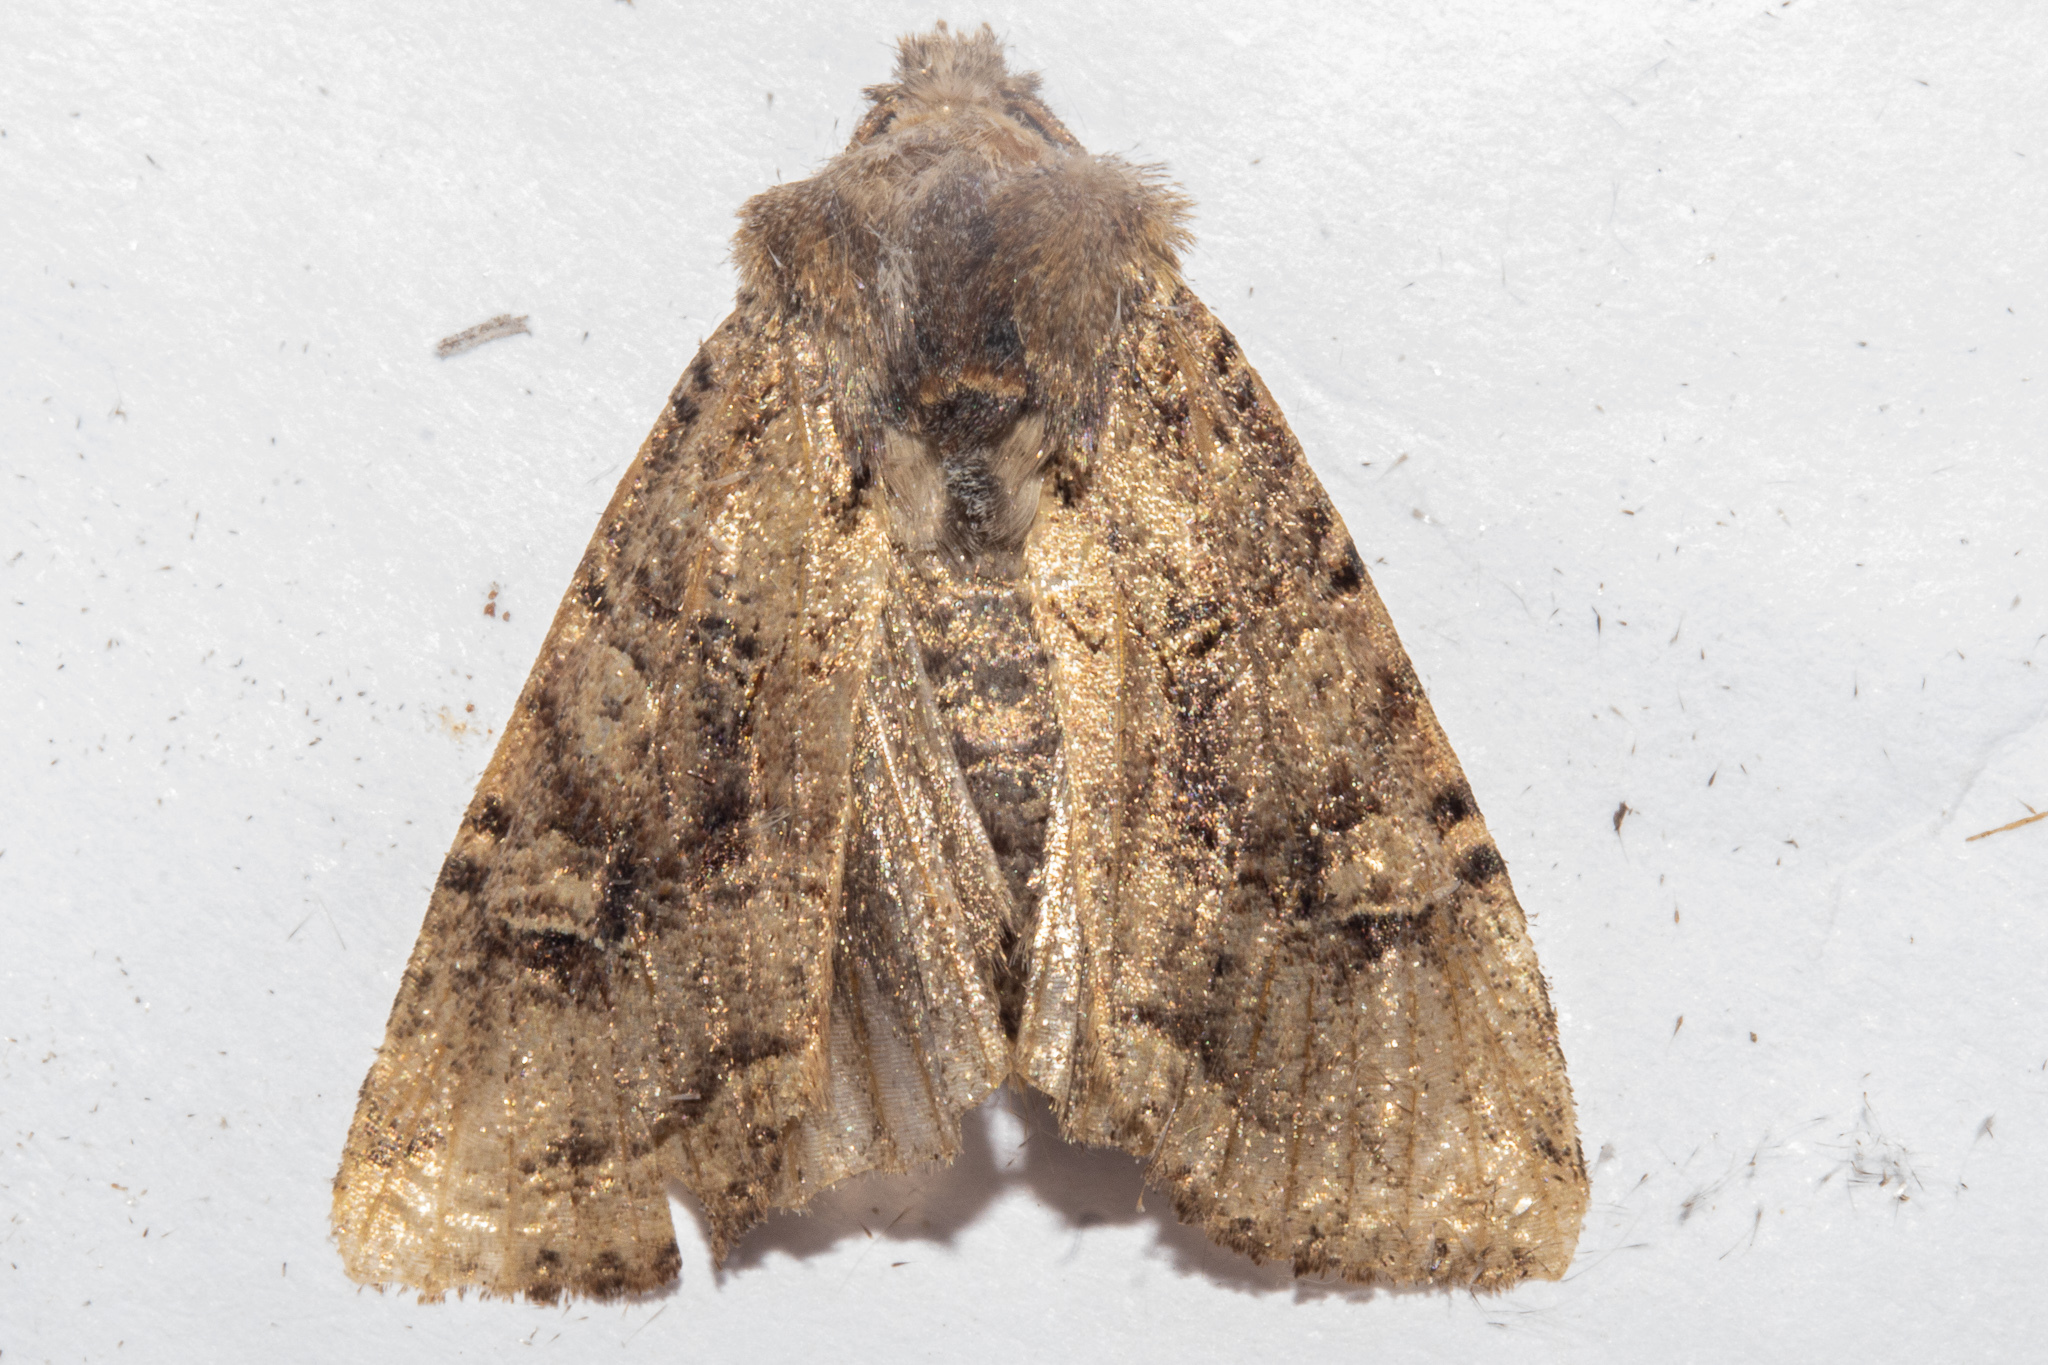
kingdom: Animalia
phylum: Arthropoda
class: Insecta
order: Lepidoptera
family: Noctuidae
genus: Meterana
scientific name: Meterana tartaraea
